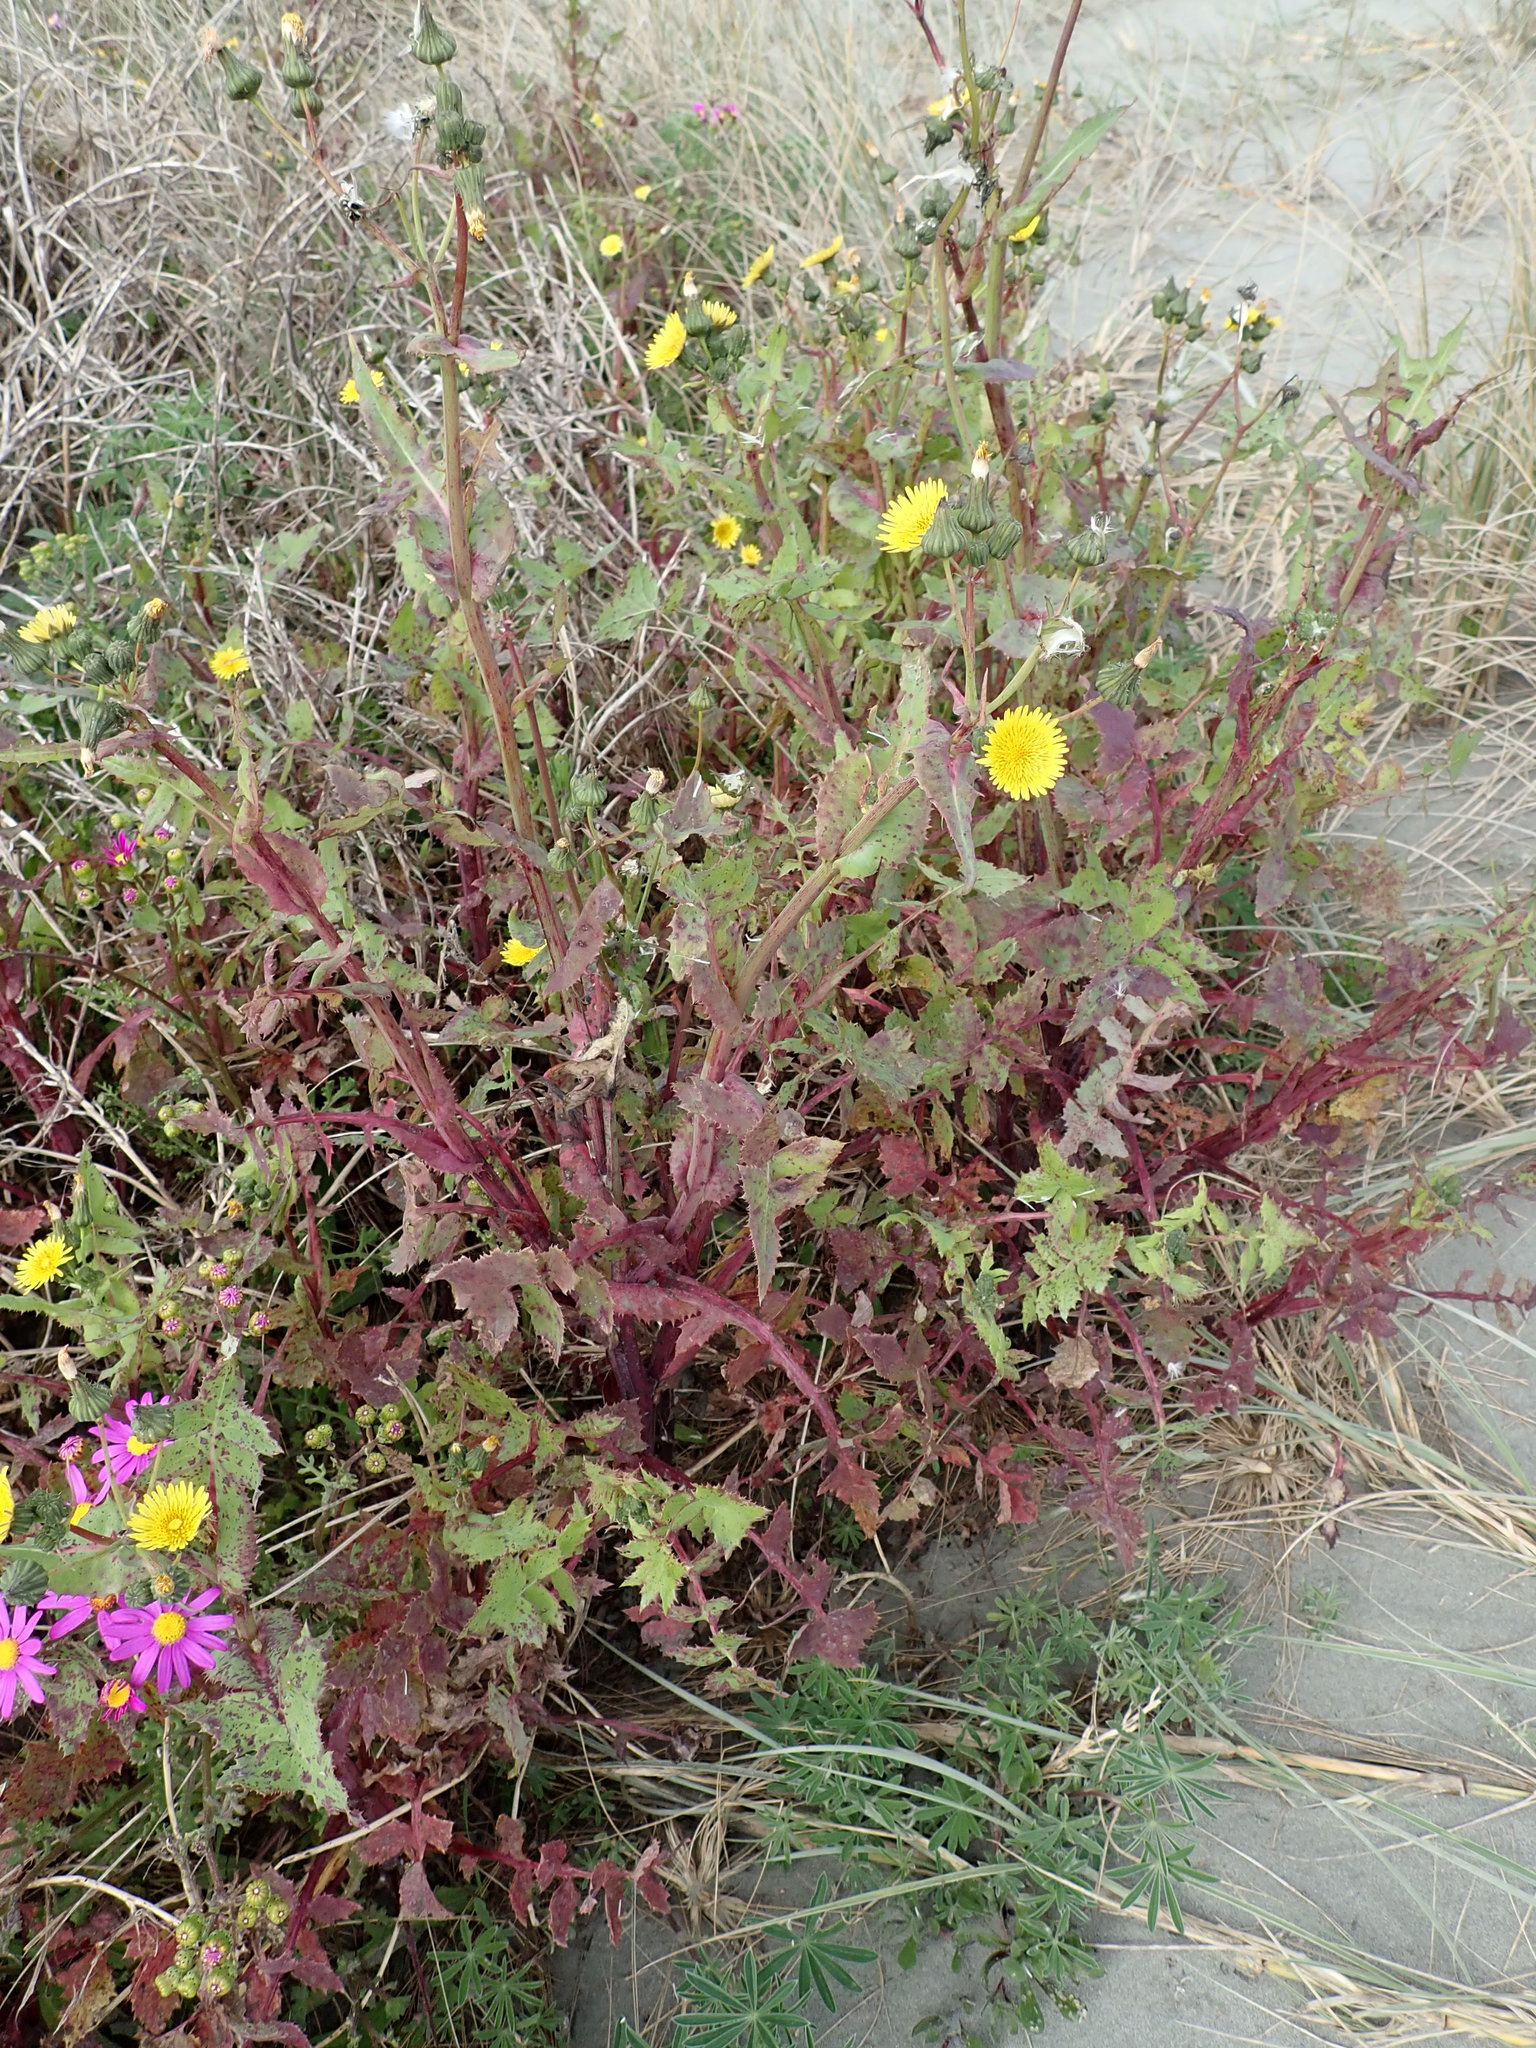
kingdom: Plantae
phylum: Tracheophyta
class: Magnoliopsida
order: Asterales
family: Asteraceae
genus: Sonchus
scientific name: Sonchus oleraceus
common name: Common sowthistle
